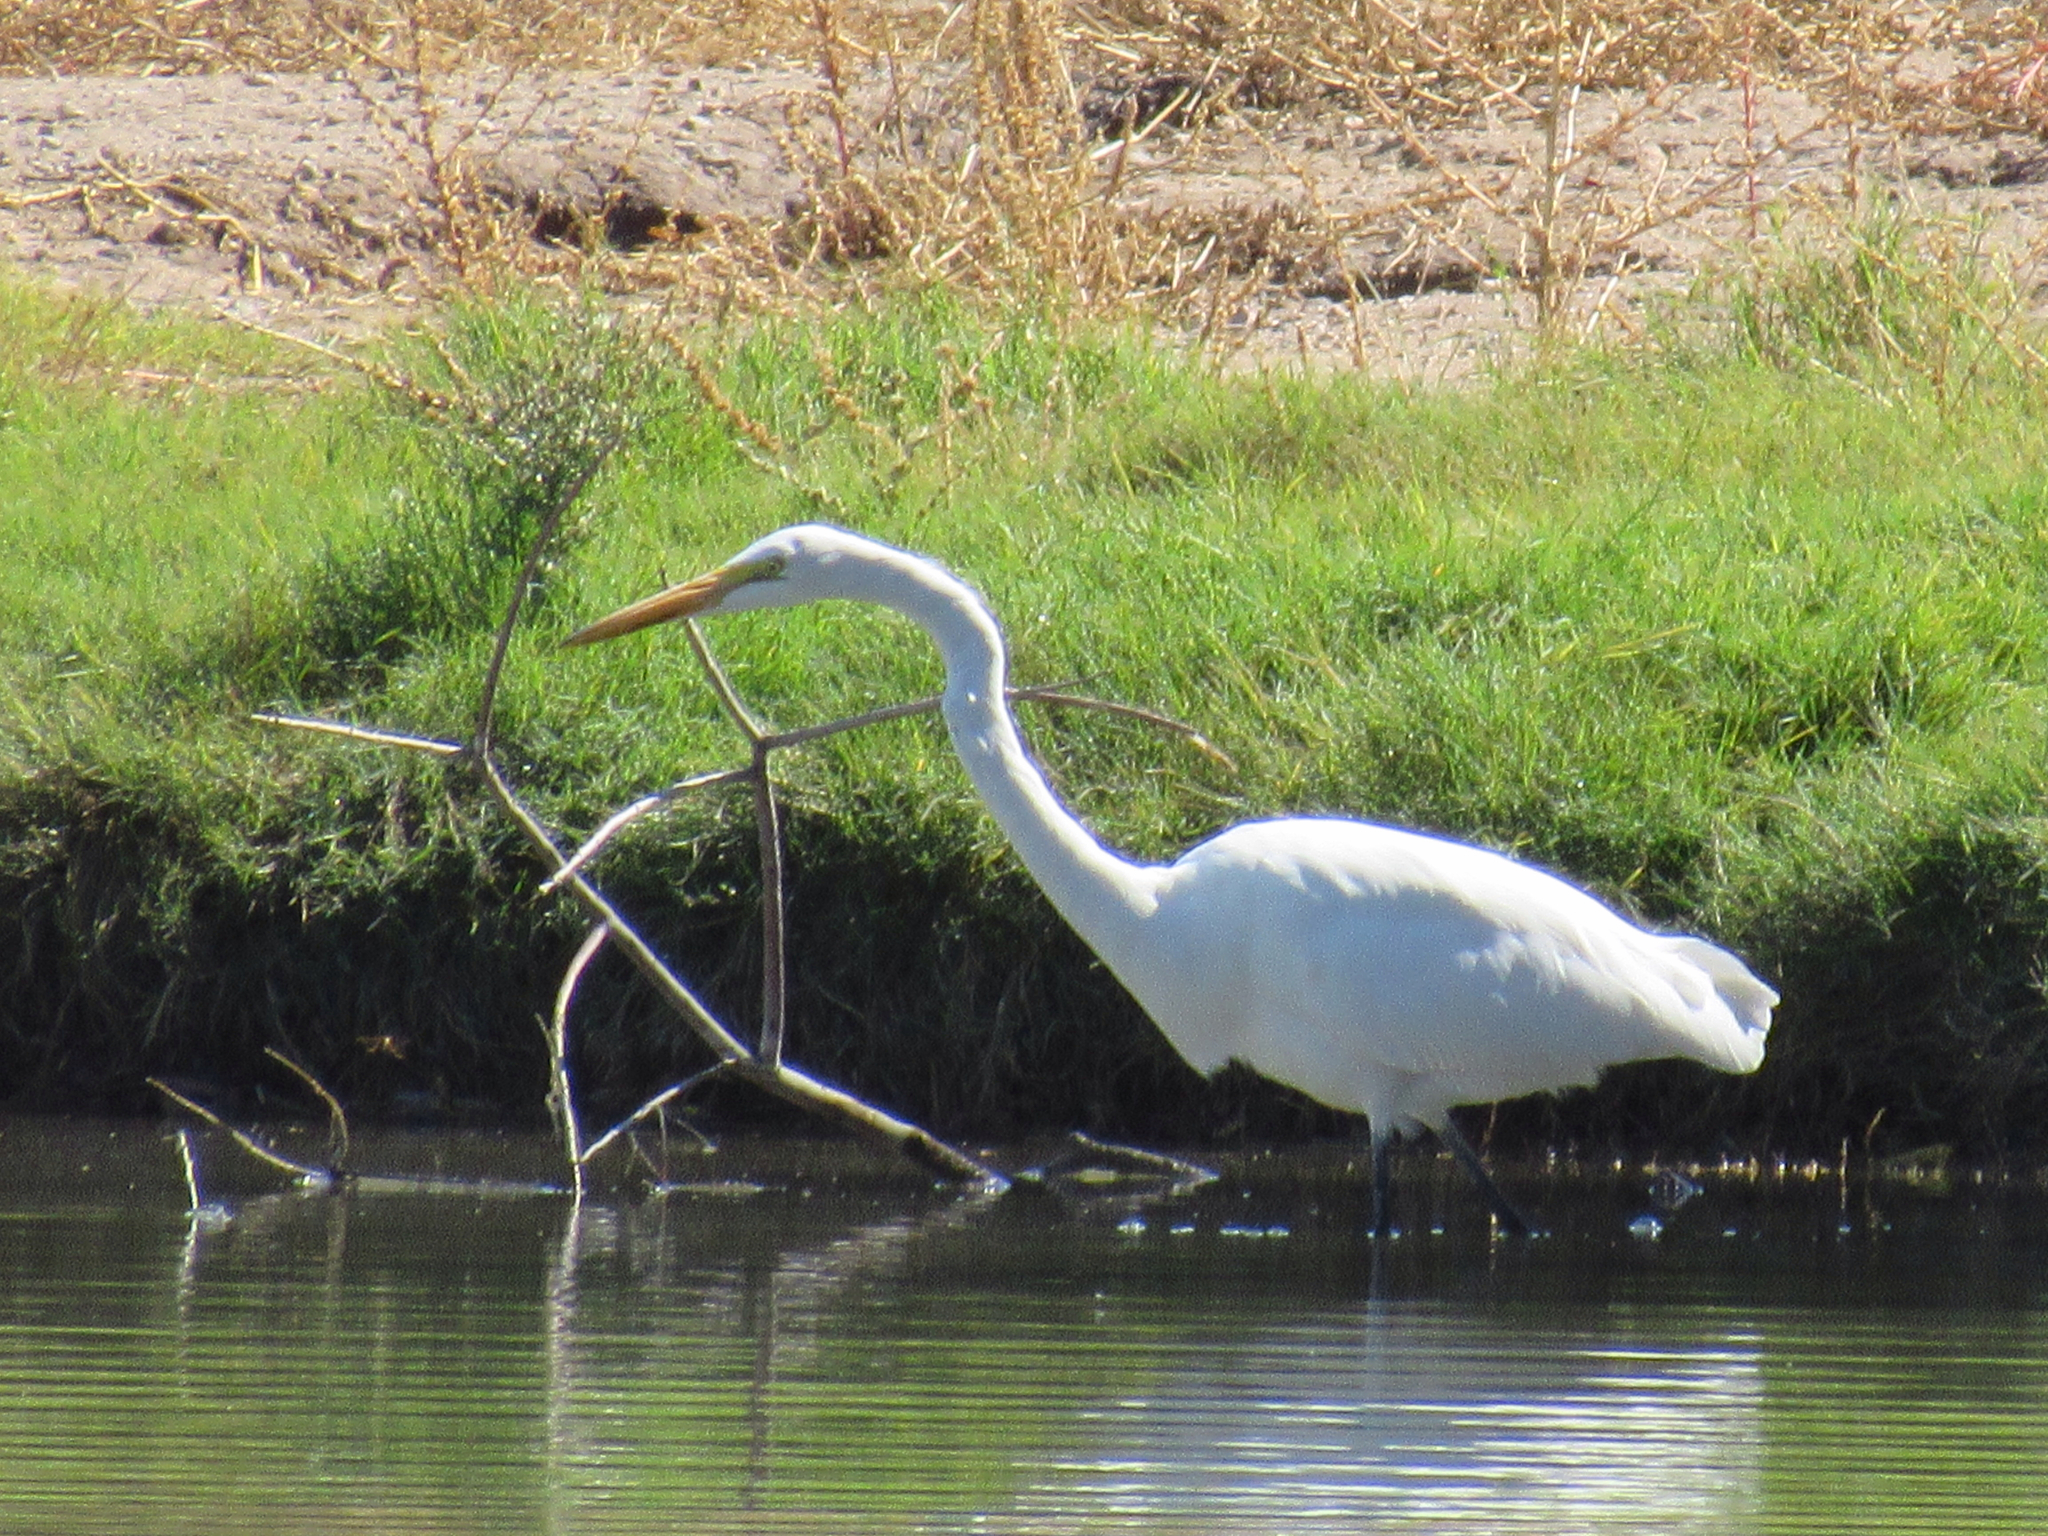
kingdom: Animalia
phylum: Chordata
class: Aves
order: Pelecaniformes
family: Ardeidae
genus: Ardea
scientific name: Ardea alba
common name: Great egret
